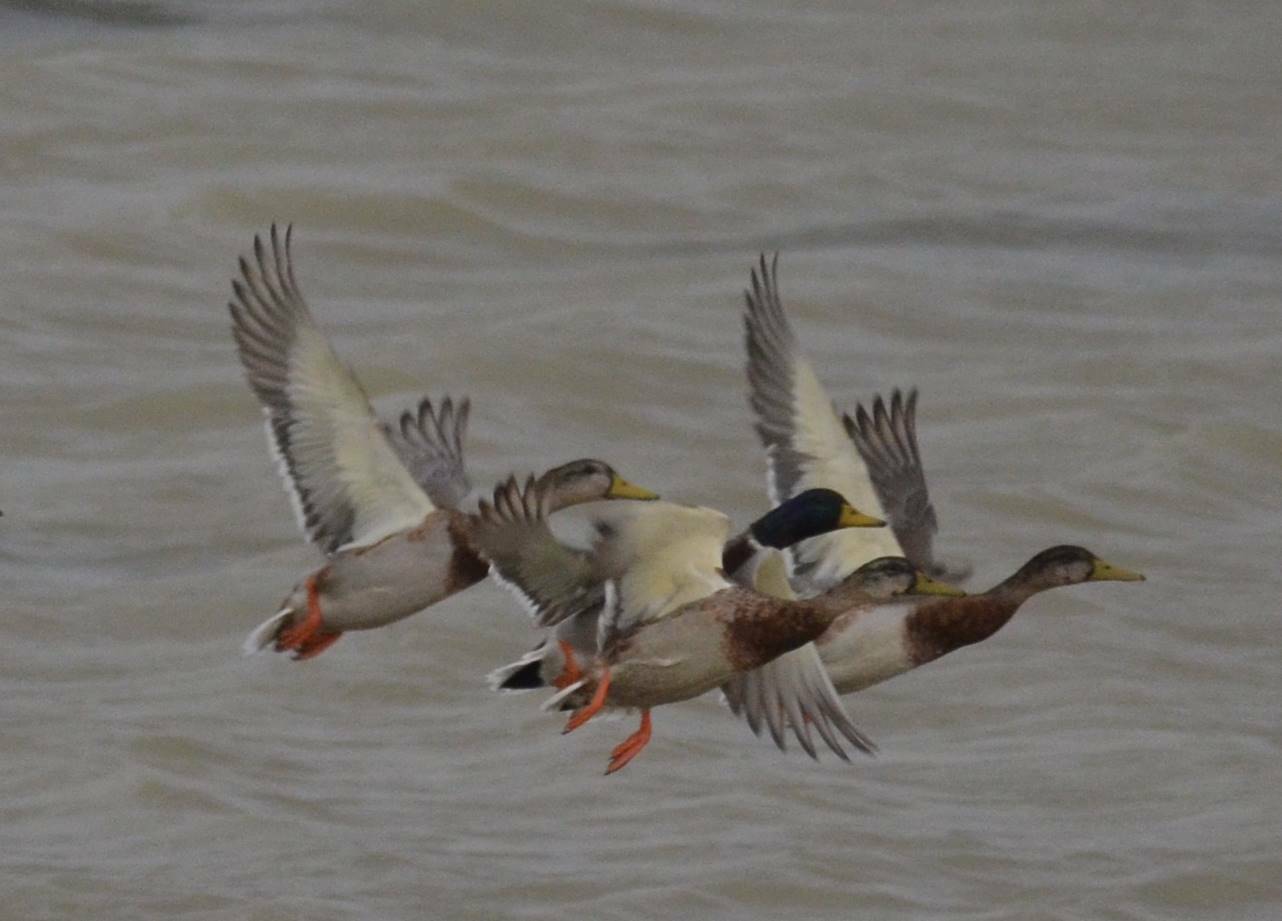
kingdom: Animalia
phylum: Chordata
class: Aves
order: Anseriformes
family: Anatidae
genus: Anas
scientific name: Anas platyrhynchos
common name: Mallard
